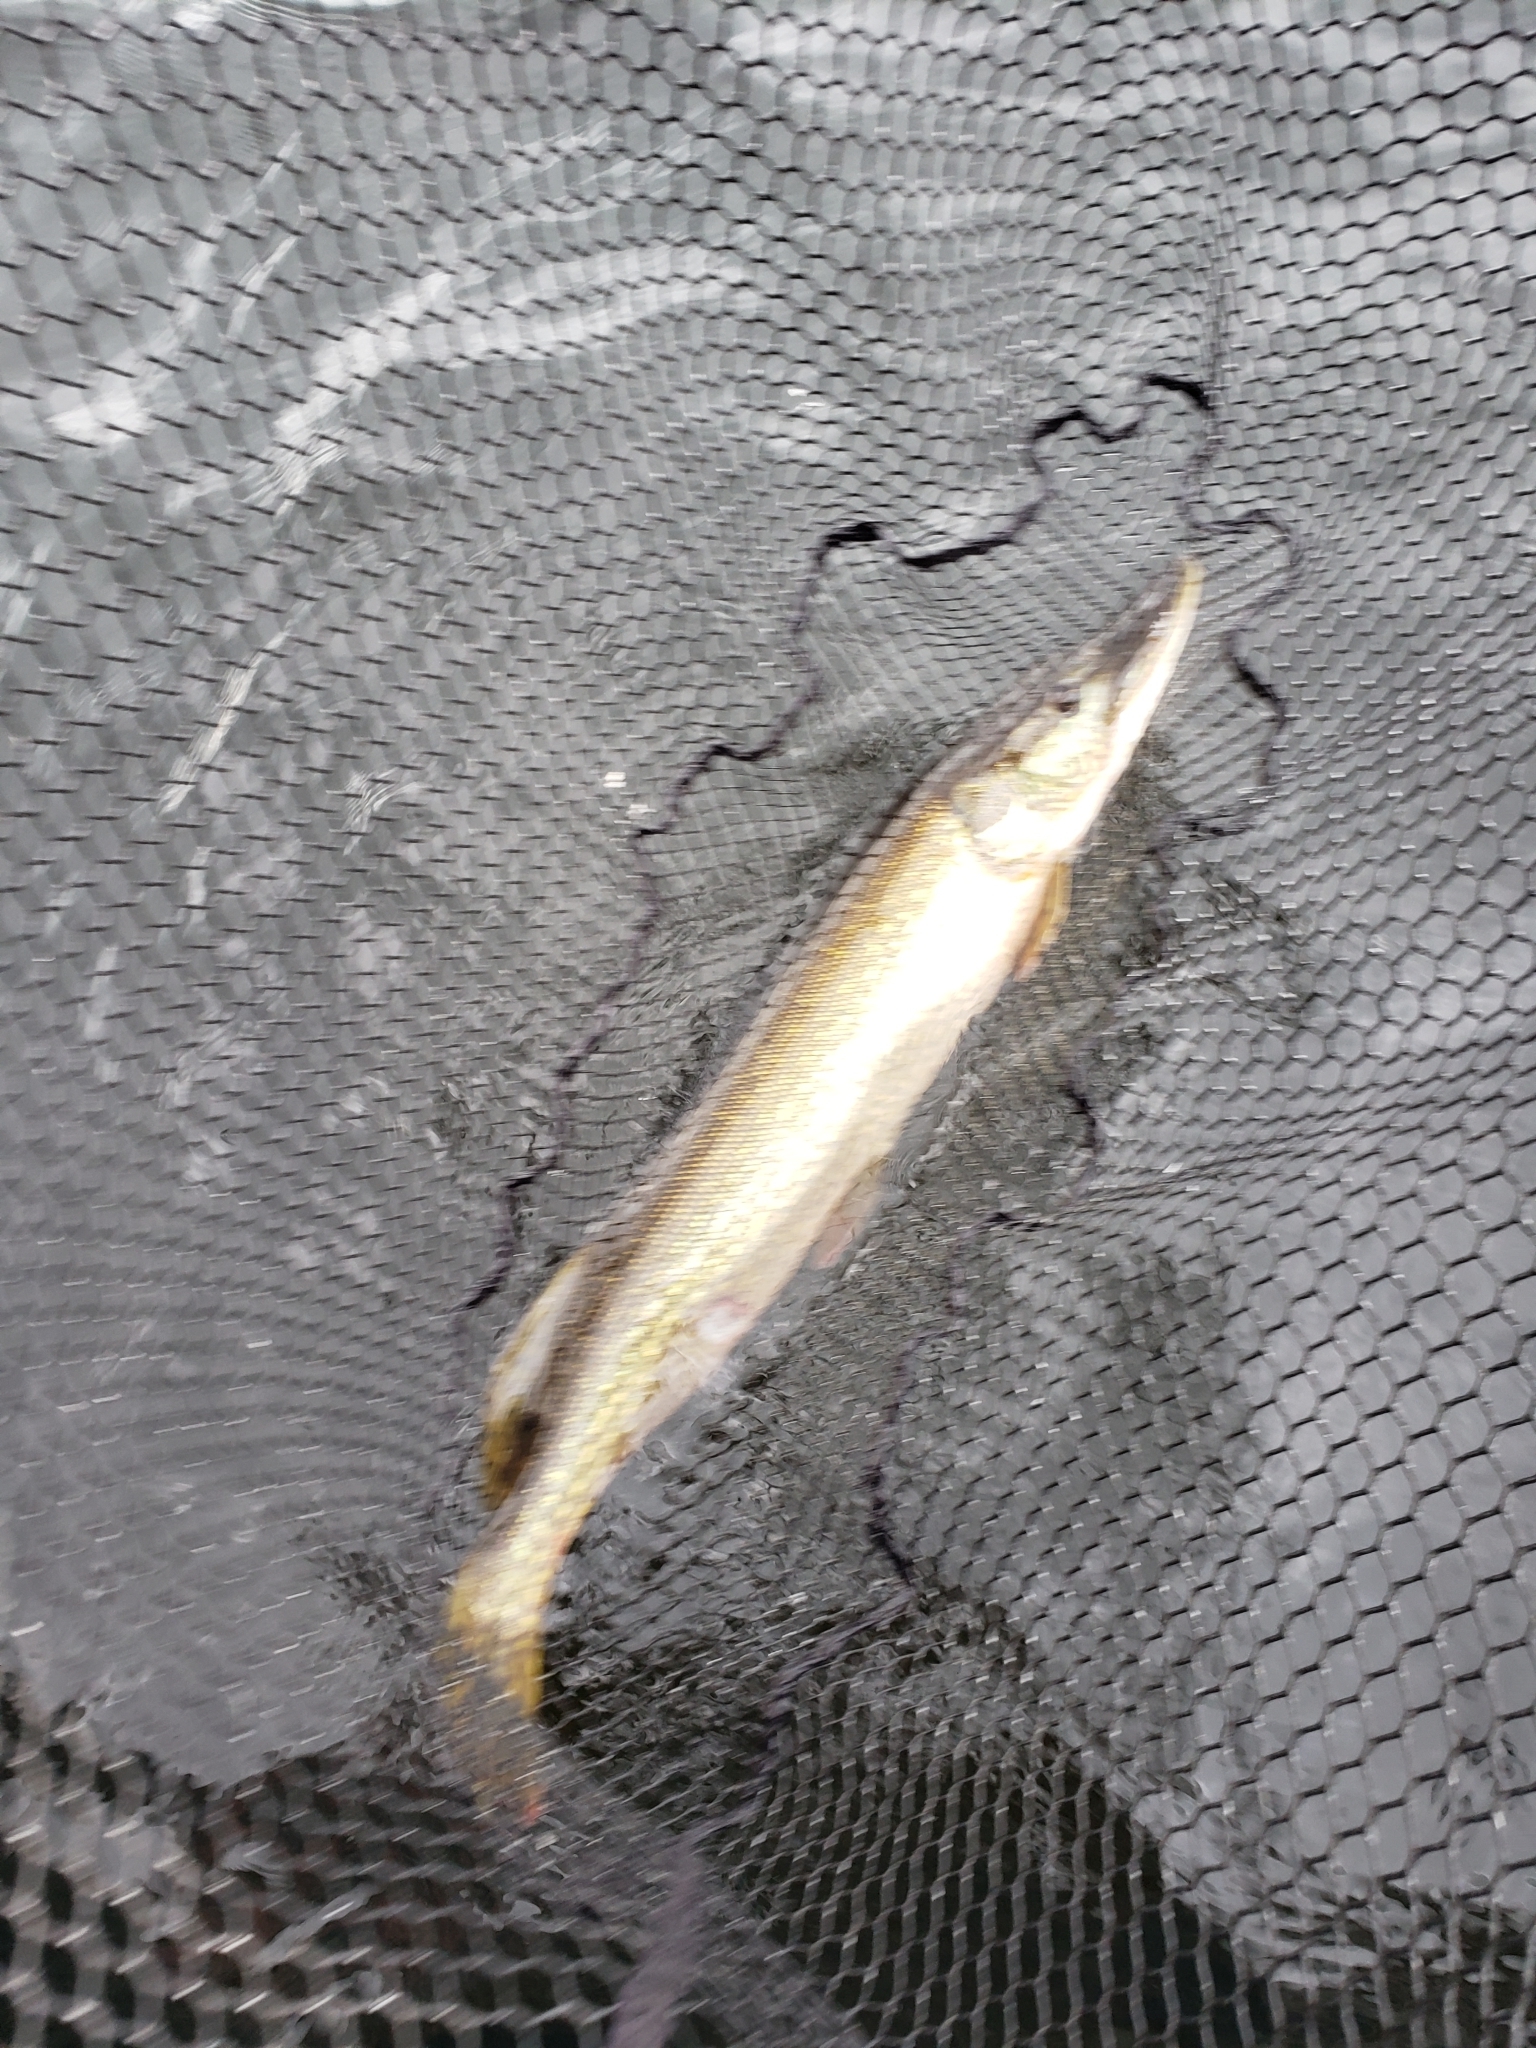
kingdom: Animalia
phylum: Chordata
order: Esociformes
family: Esocidae
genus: Esox
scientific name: Esox lucius
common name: Northern pike
